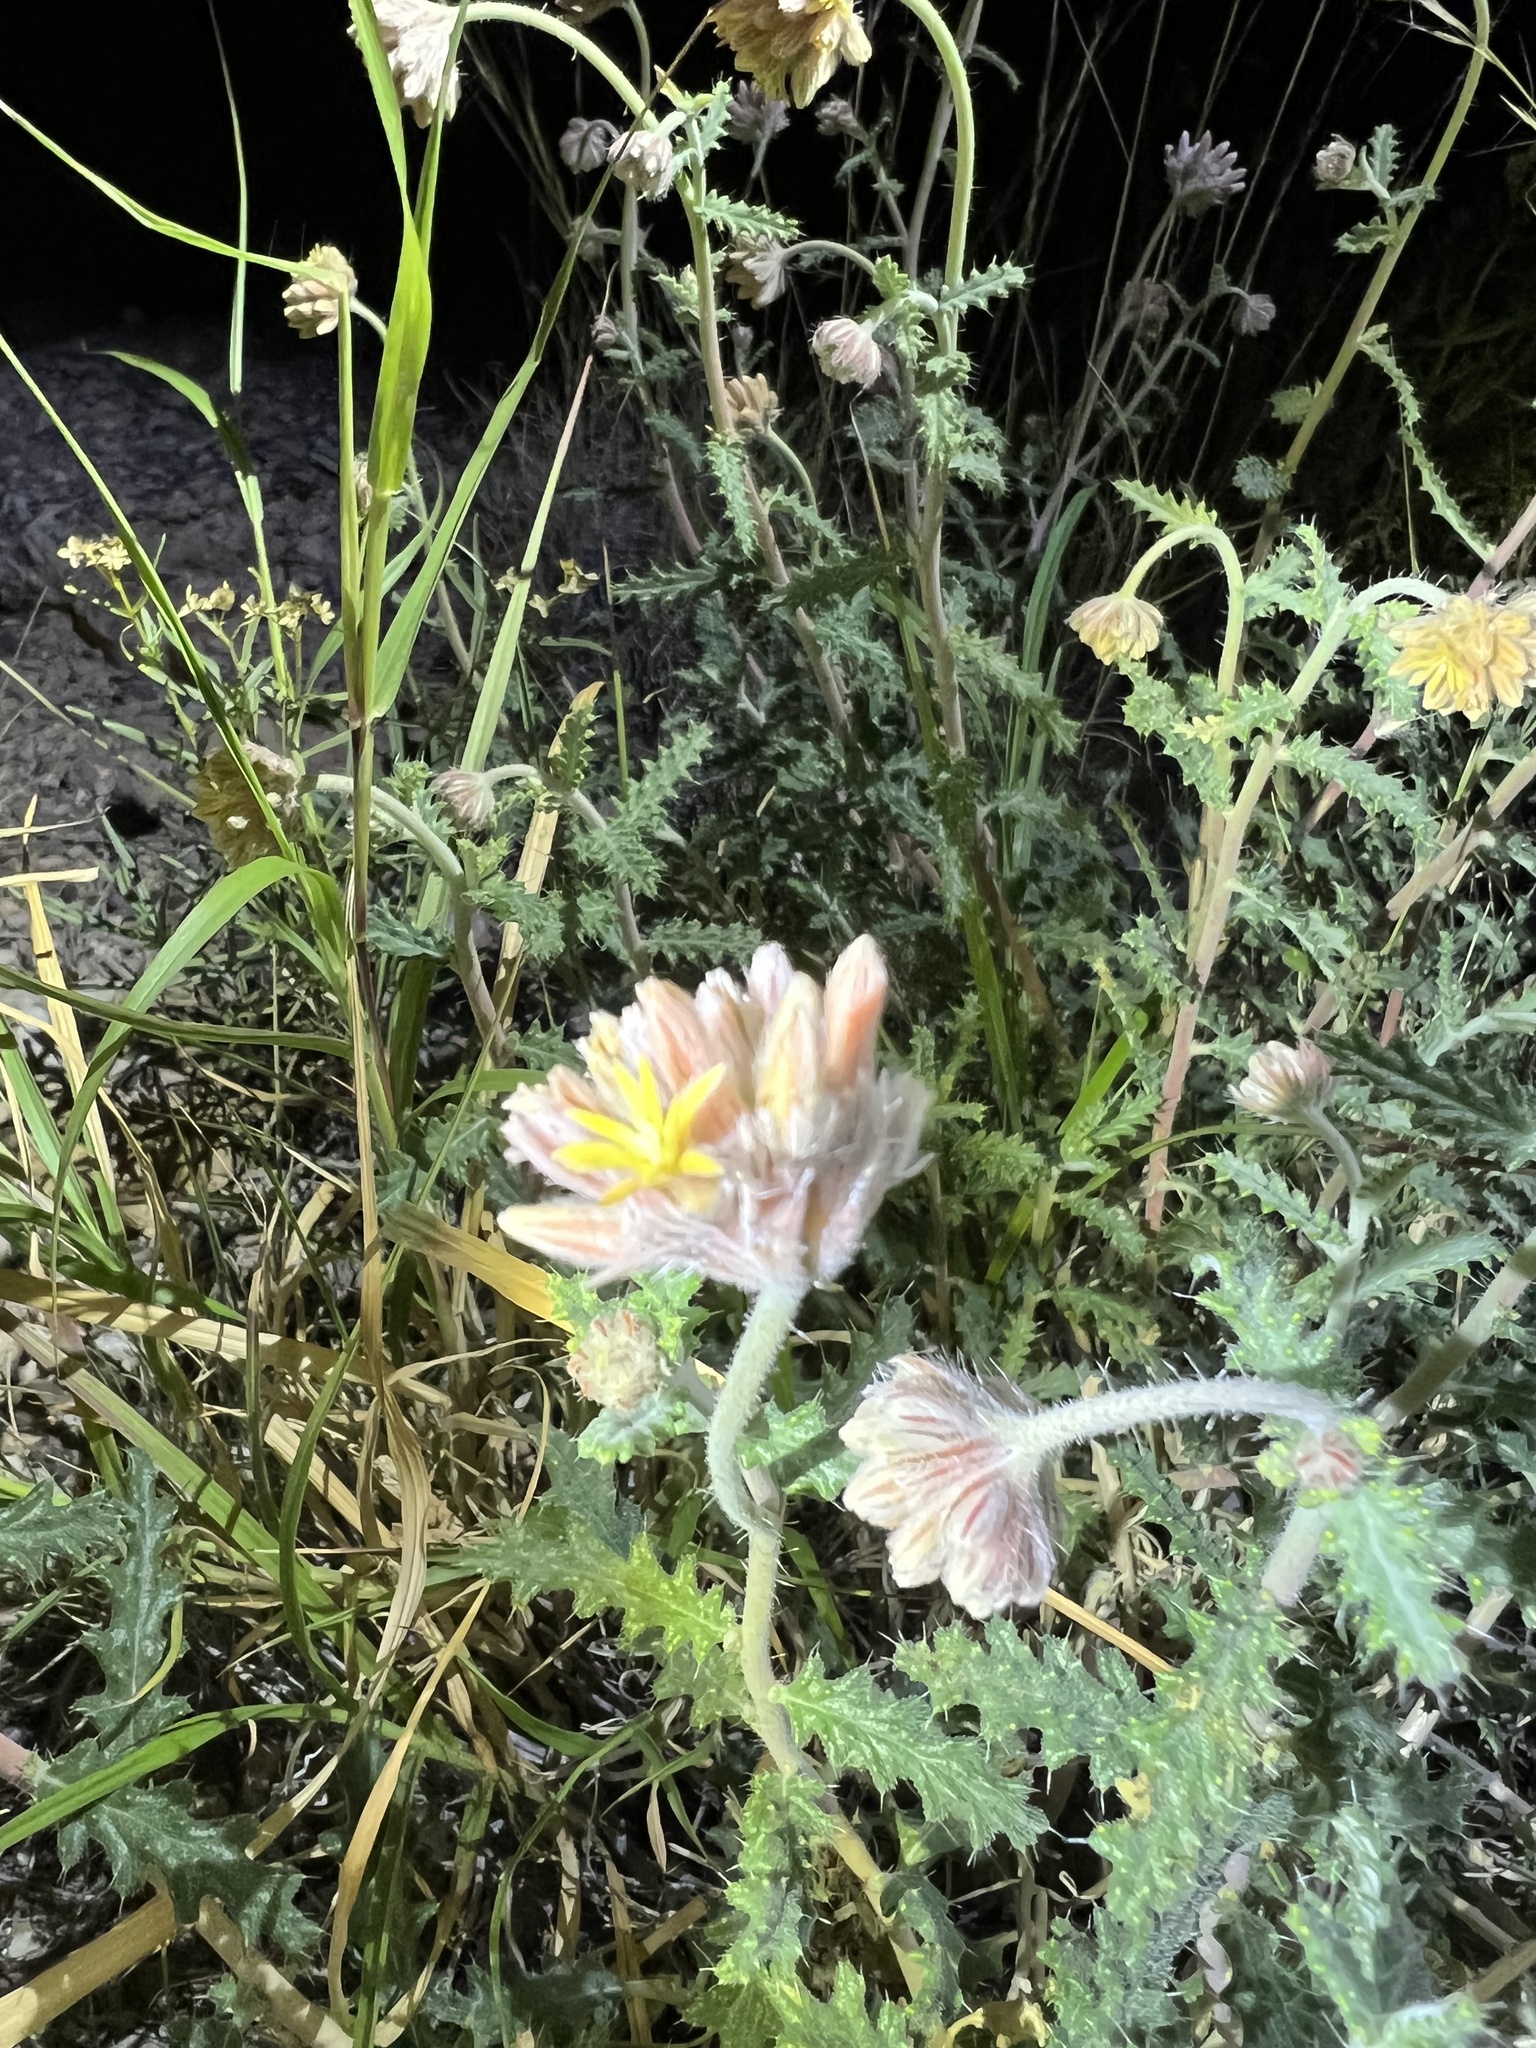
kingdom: Plantae
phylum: Tracheophyta
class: Magnoliopsida
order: Cornales
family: Loasaceae
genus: Cevallia
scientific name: Cevallia sinuata
